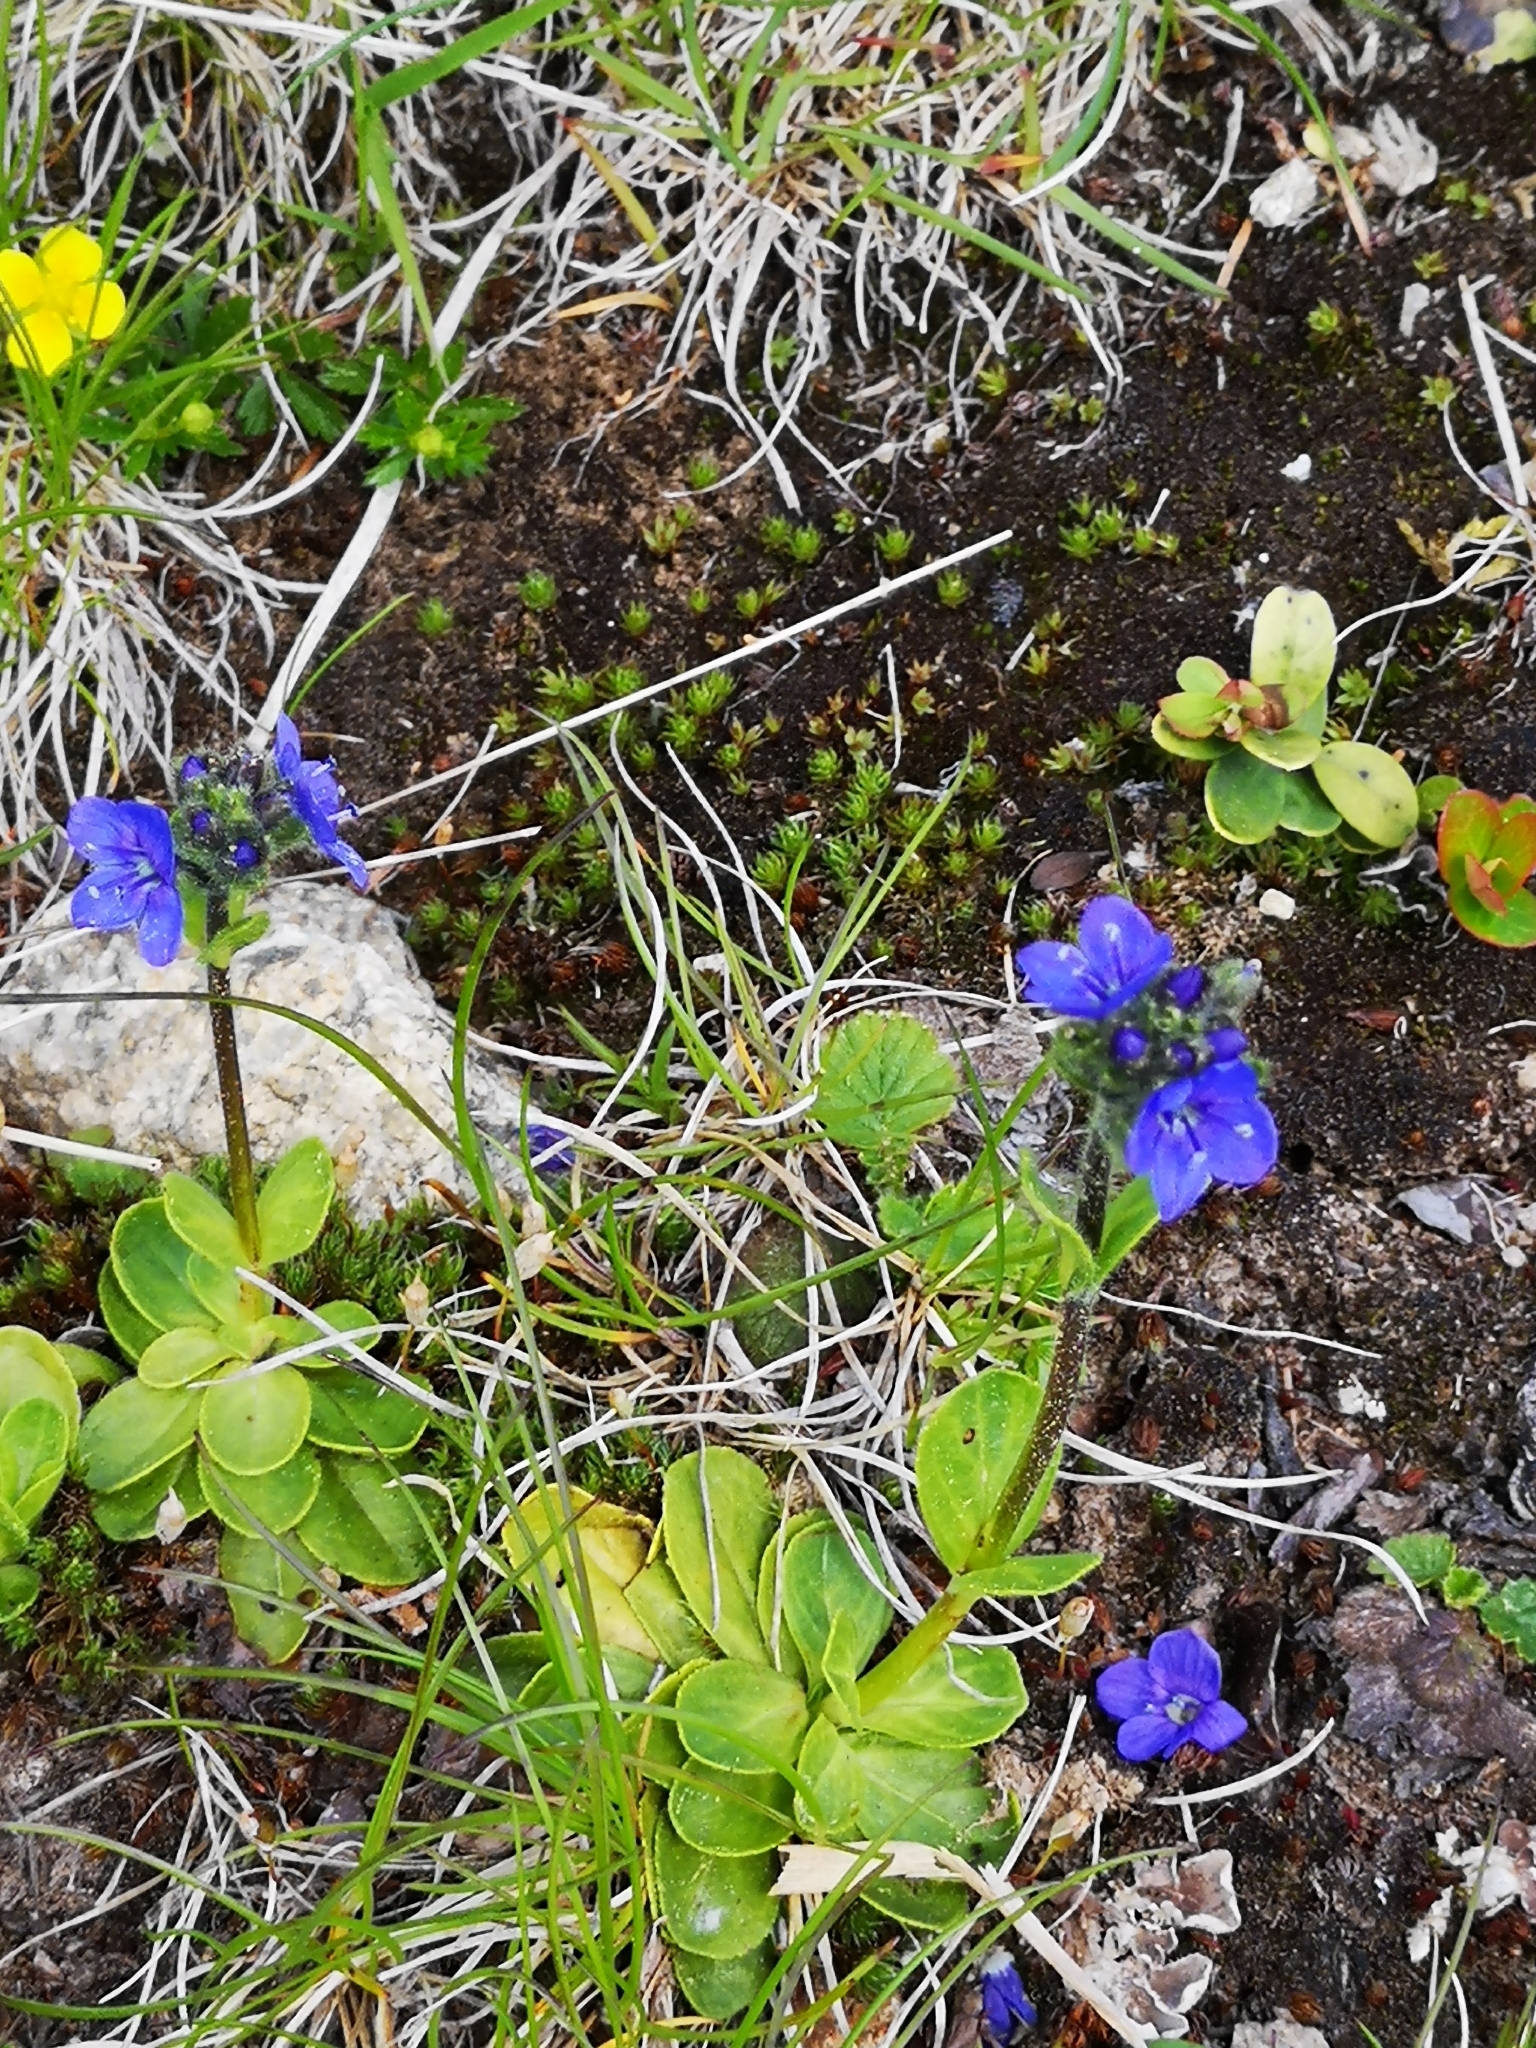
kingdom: Plantae
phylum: Tracheophyta
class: Magnoliopsida
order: Lamiales
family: Plantaginaceae
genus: Veronica
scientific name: Veronica bellidioides
